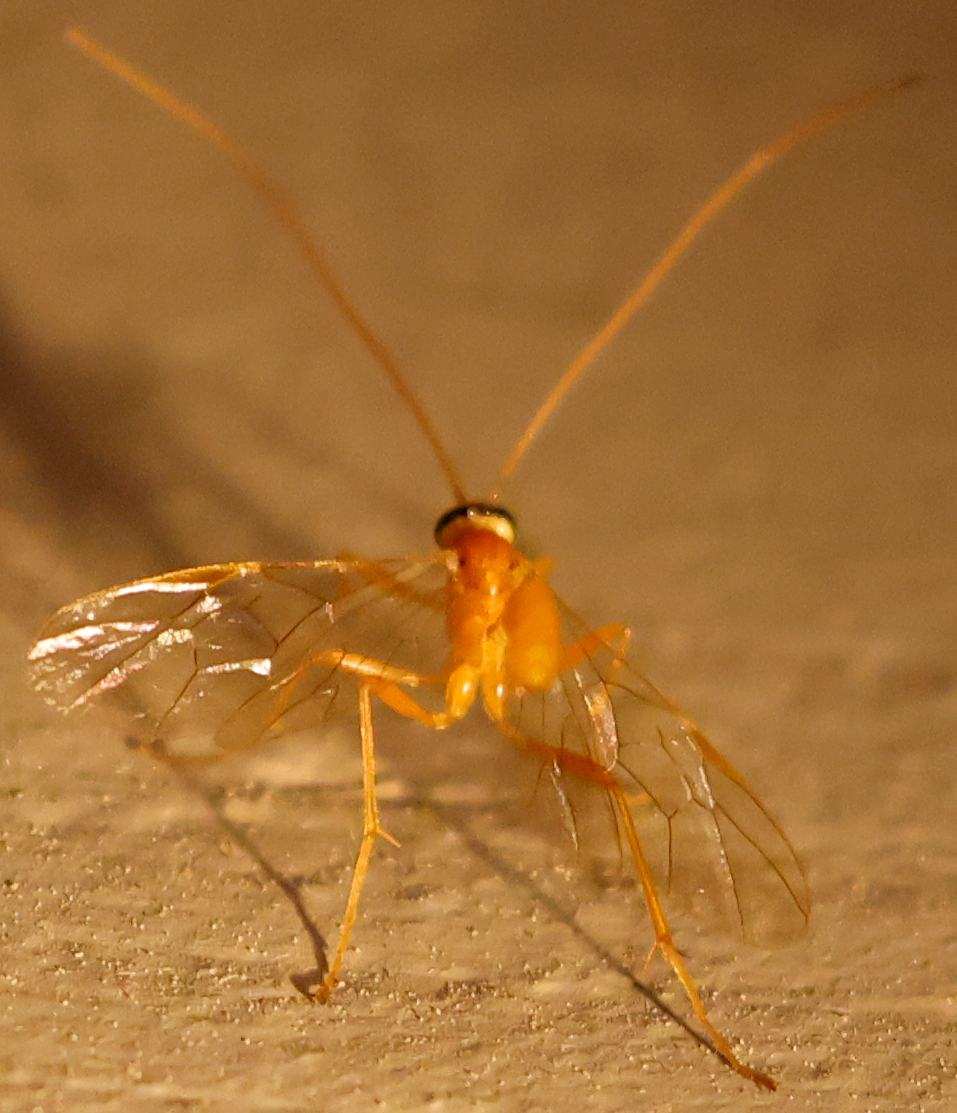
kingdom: Animalia
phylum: Arthropoda
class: Insecta
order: Hymenoptera
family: Ichneumonidae
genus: Ophion
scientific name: Ophion
